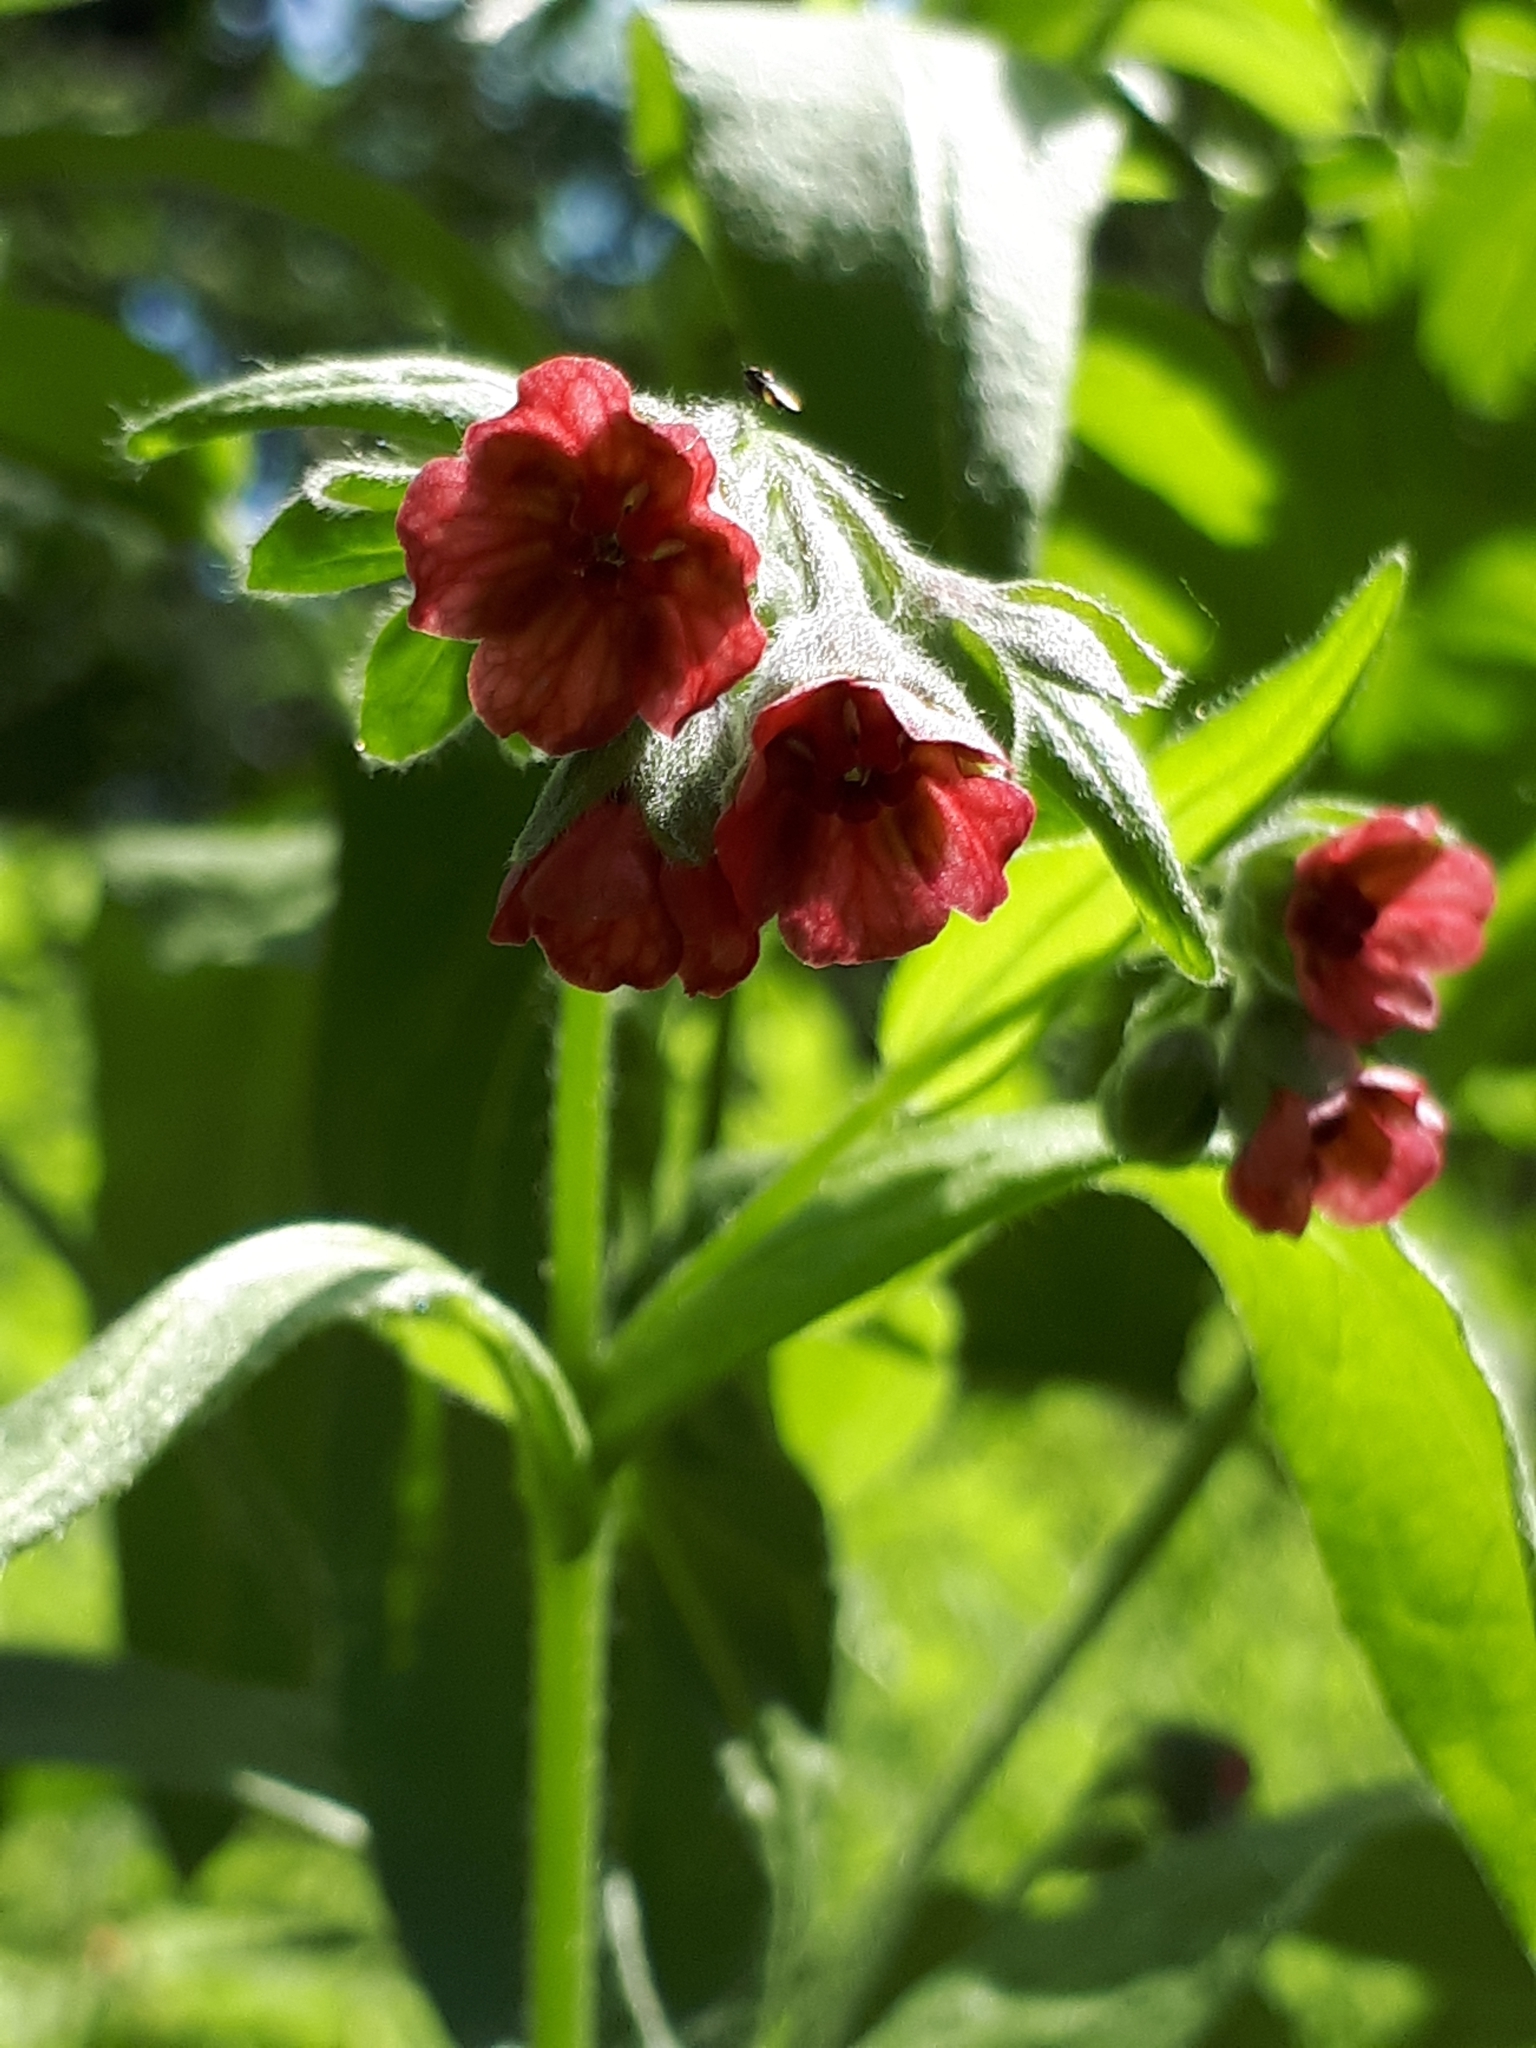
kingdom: Plantae
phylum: Tracheophyta
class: Magnoliopsida
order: Boraginales
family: Boraginaceae
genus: Cynoglossum
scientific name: Cynoglossum officinale
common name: Hound's-tongue
